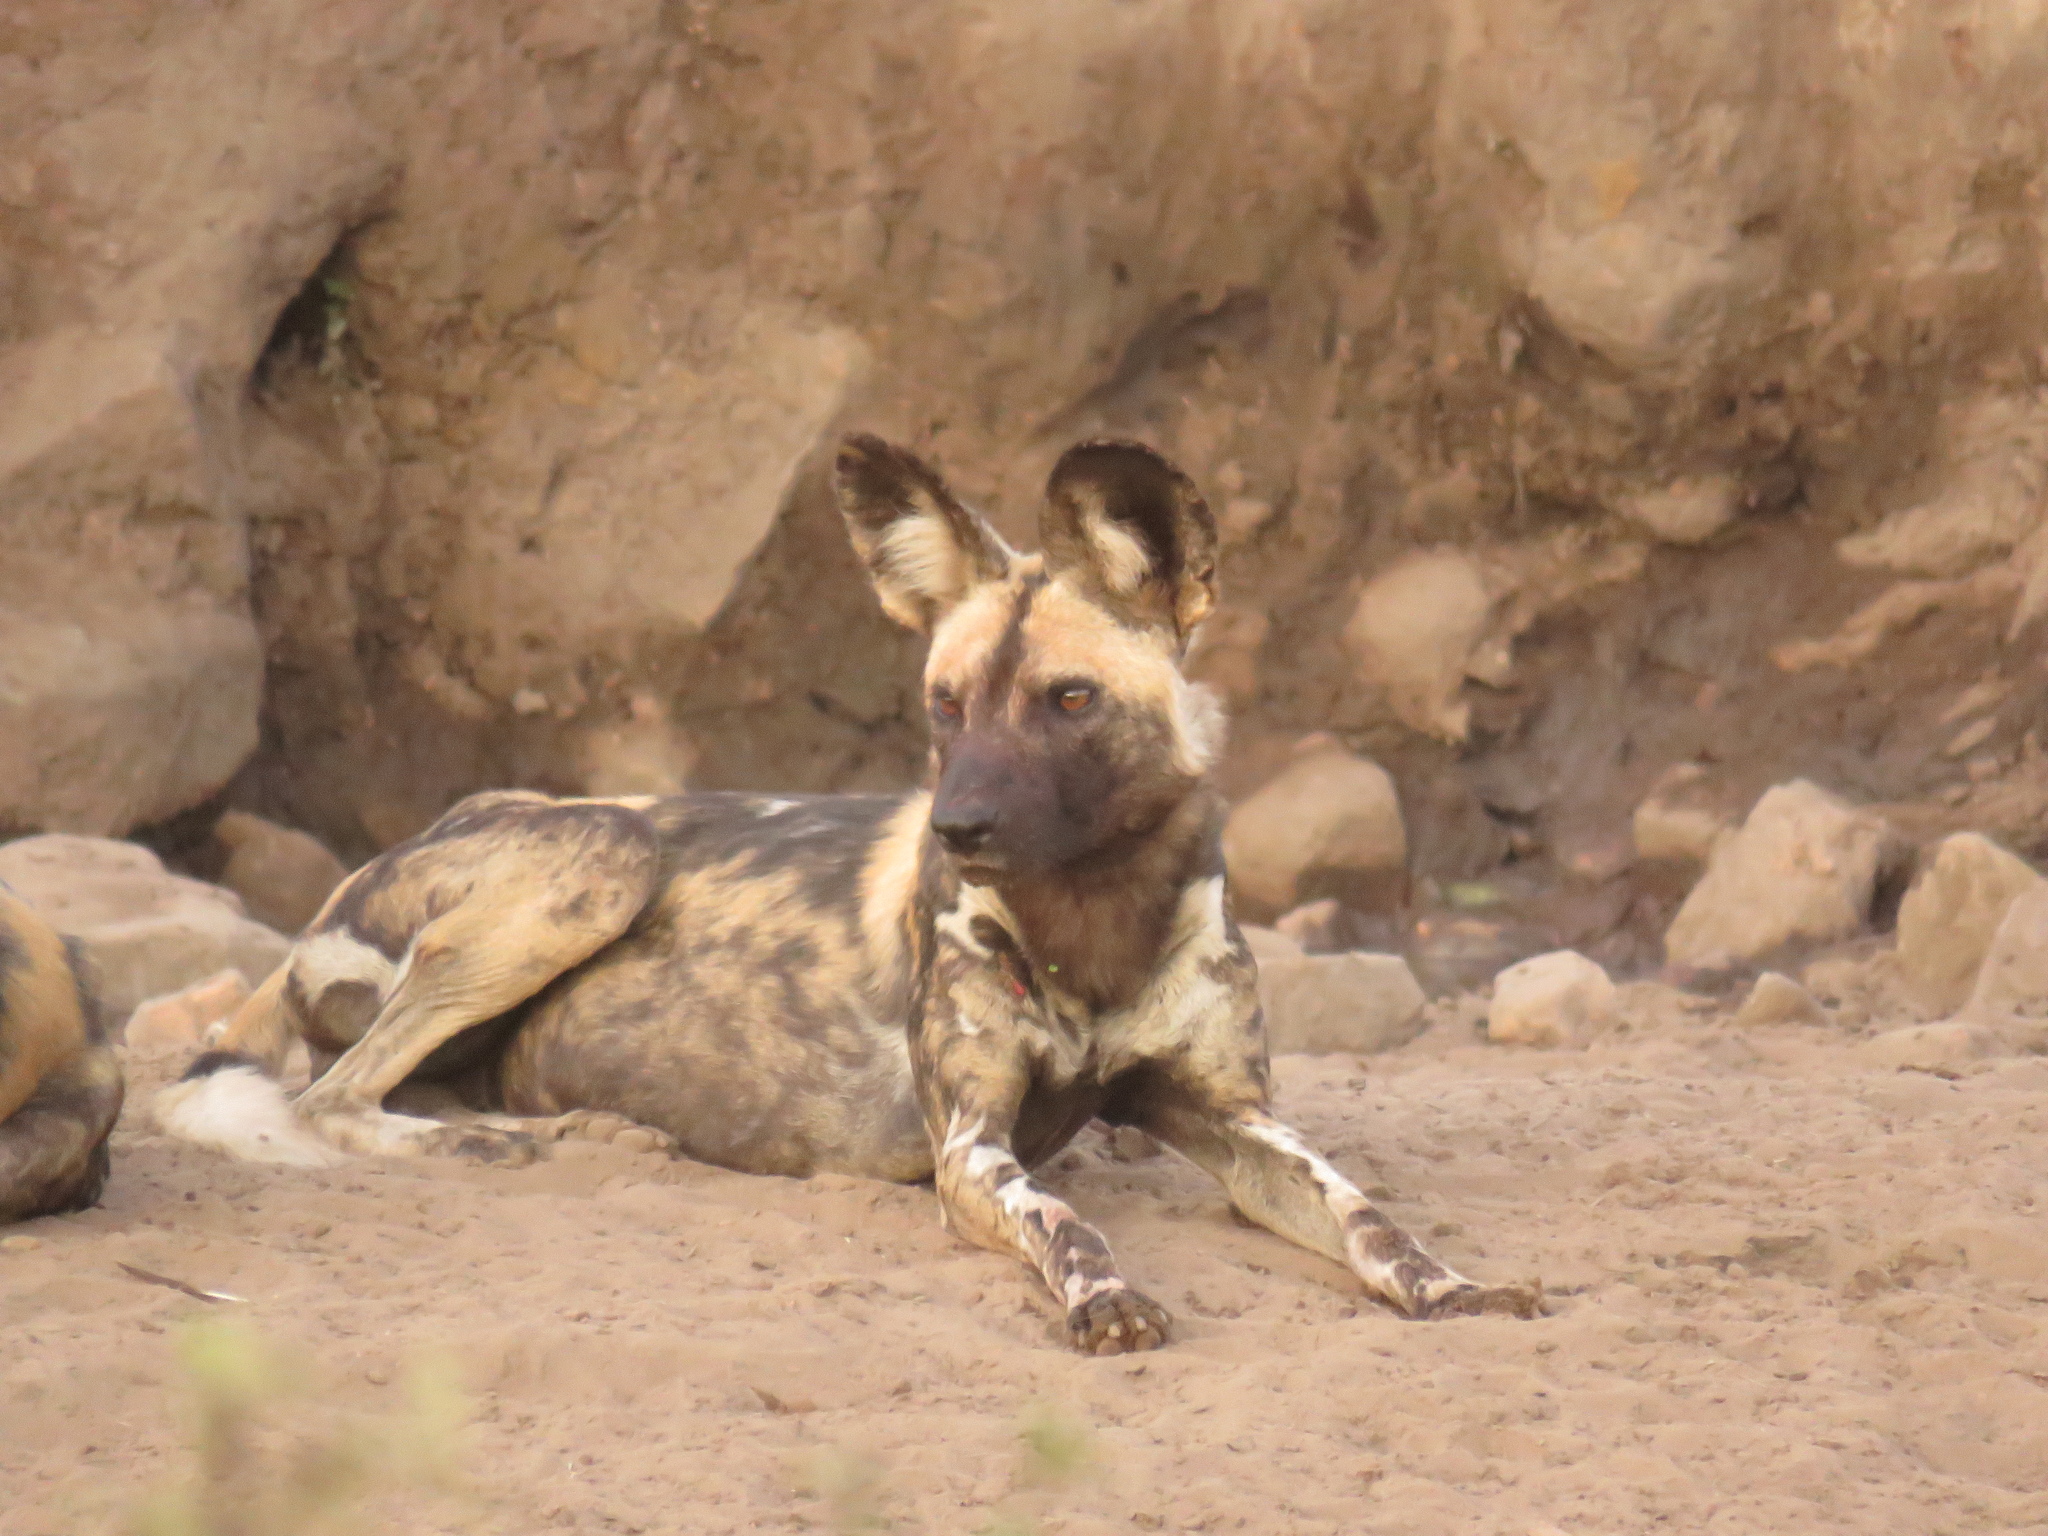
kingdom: Animalia
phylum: Chordata
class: Mammalia
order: Carnivora
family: Canidae
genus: Lycaon
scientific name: Lycaon pictus
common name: African wild dog
